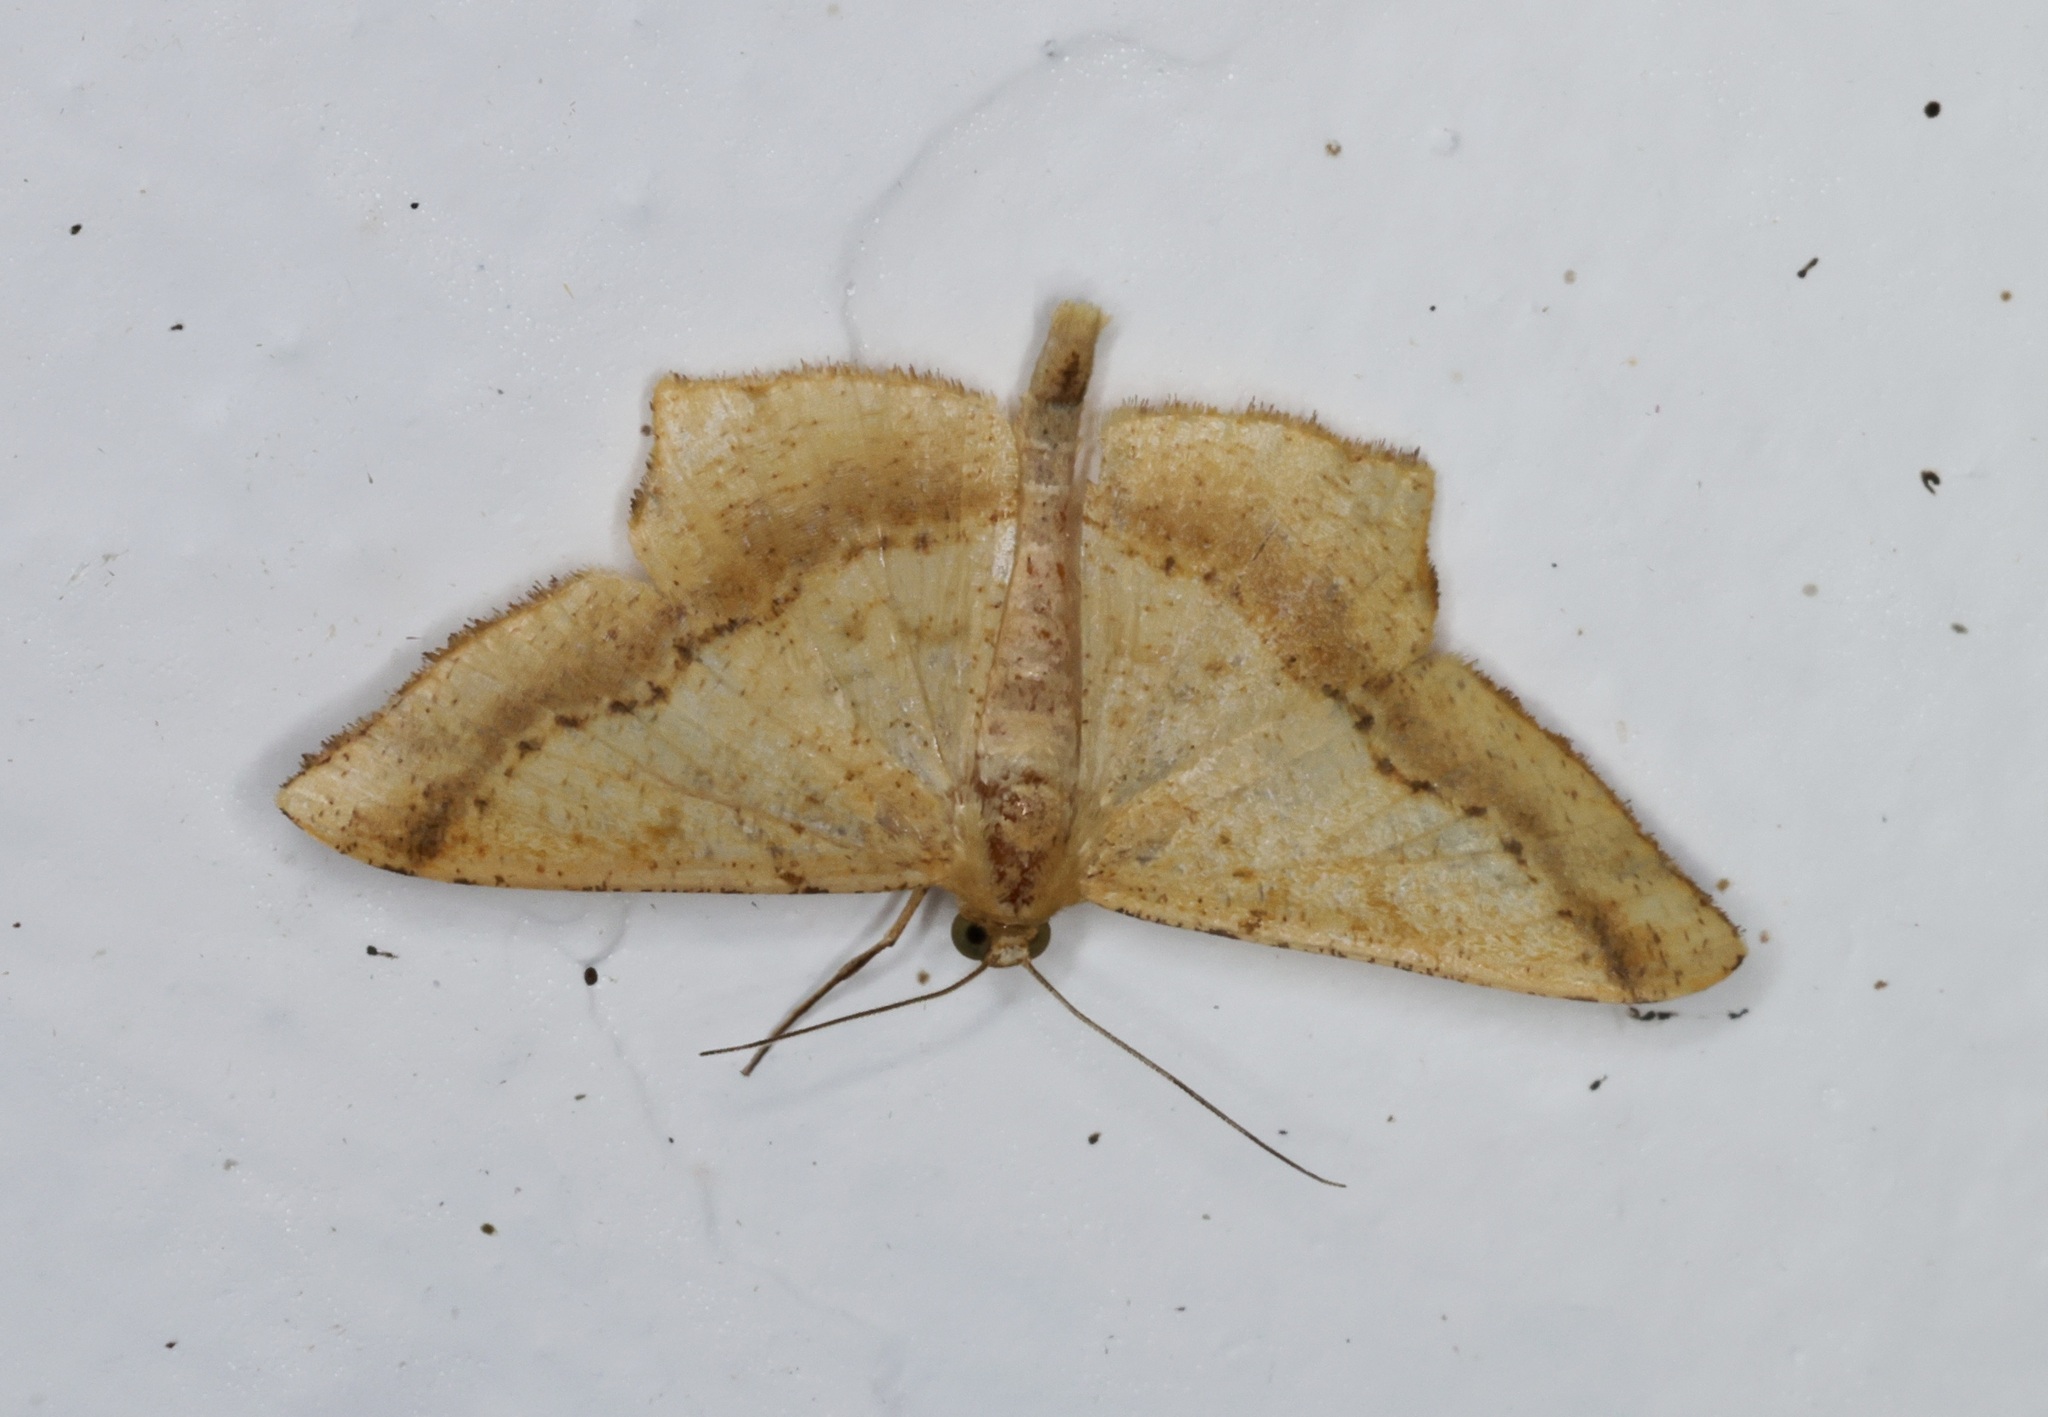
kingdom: Animalia
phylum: Arthropoda
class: Insecta
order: Lepidoptera
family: Geometridae
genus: Krananda
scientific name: Krananda falcata
